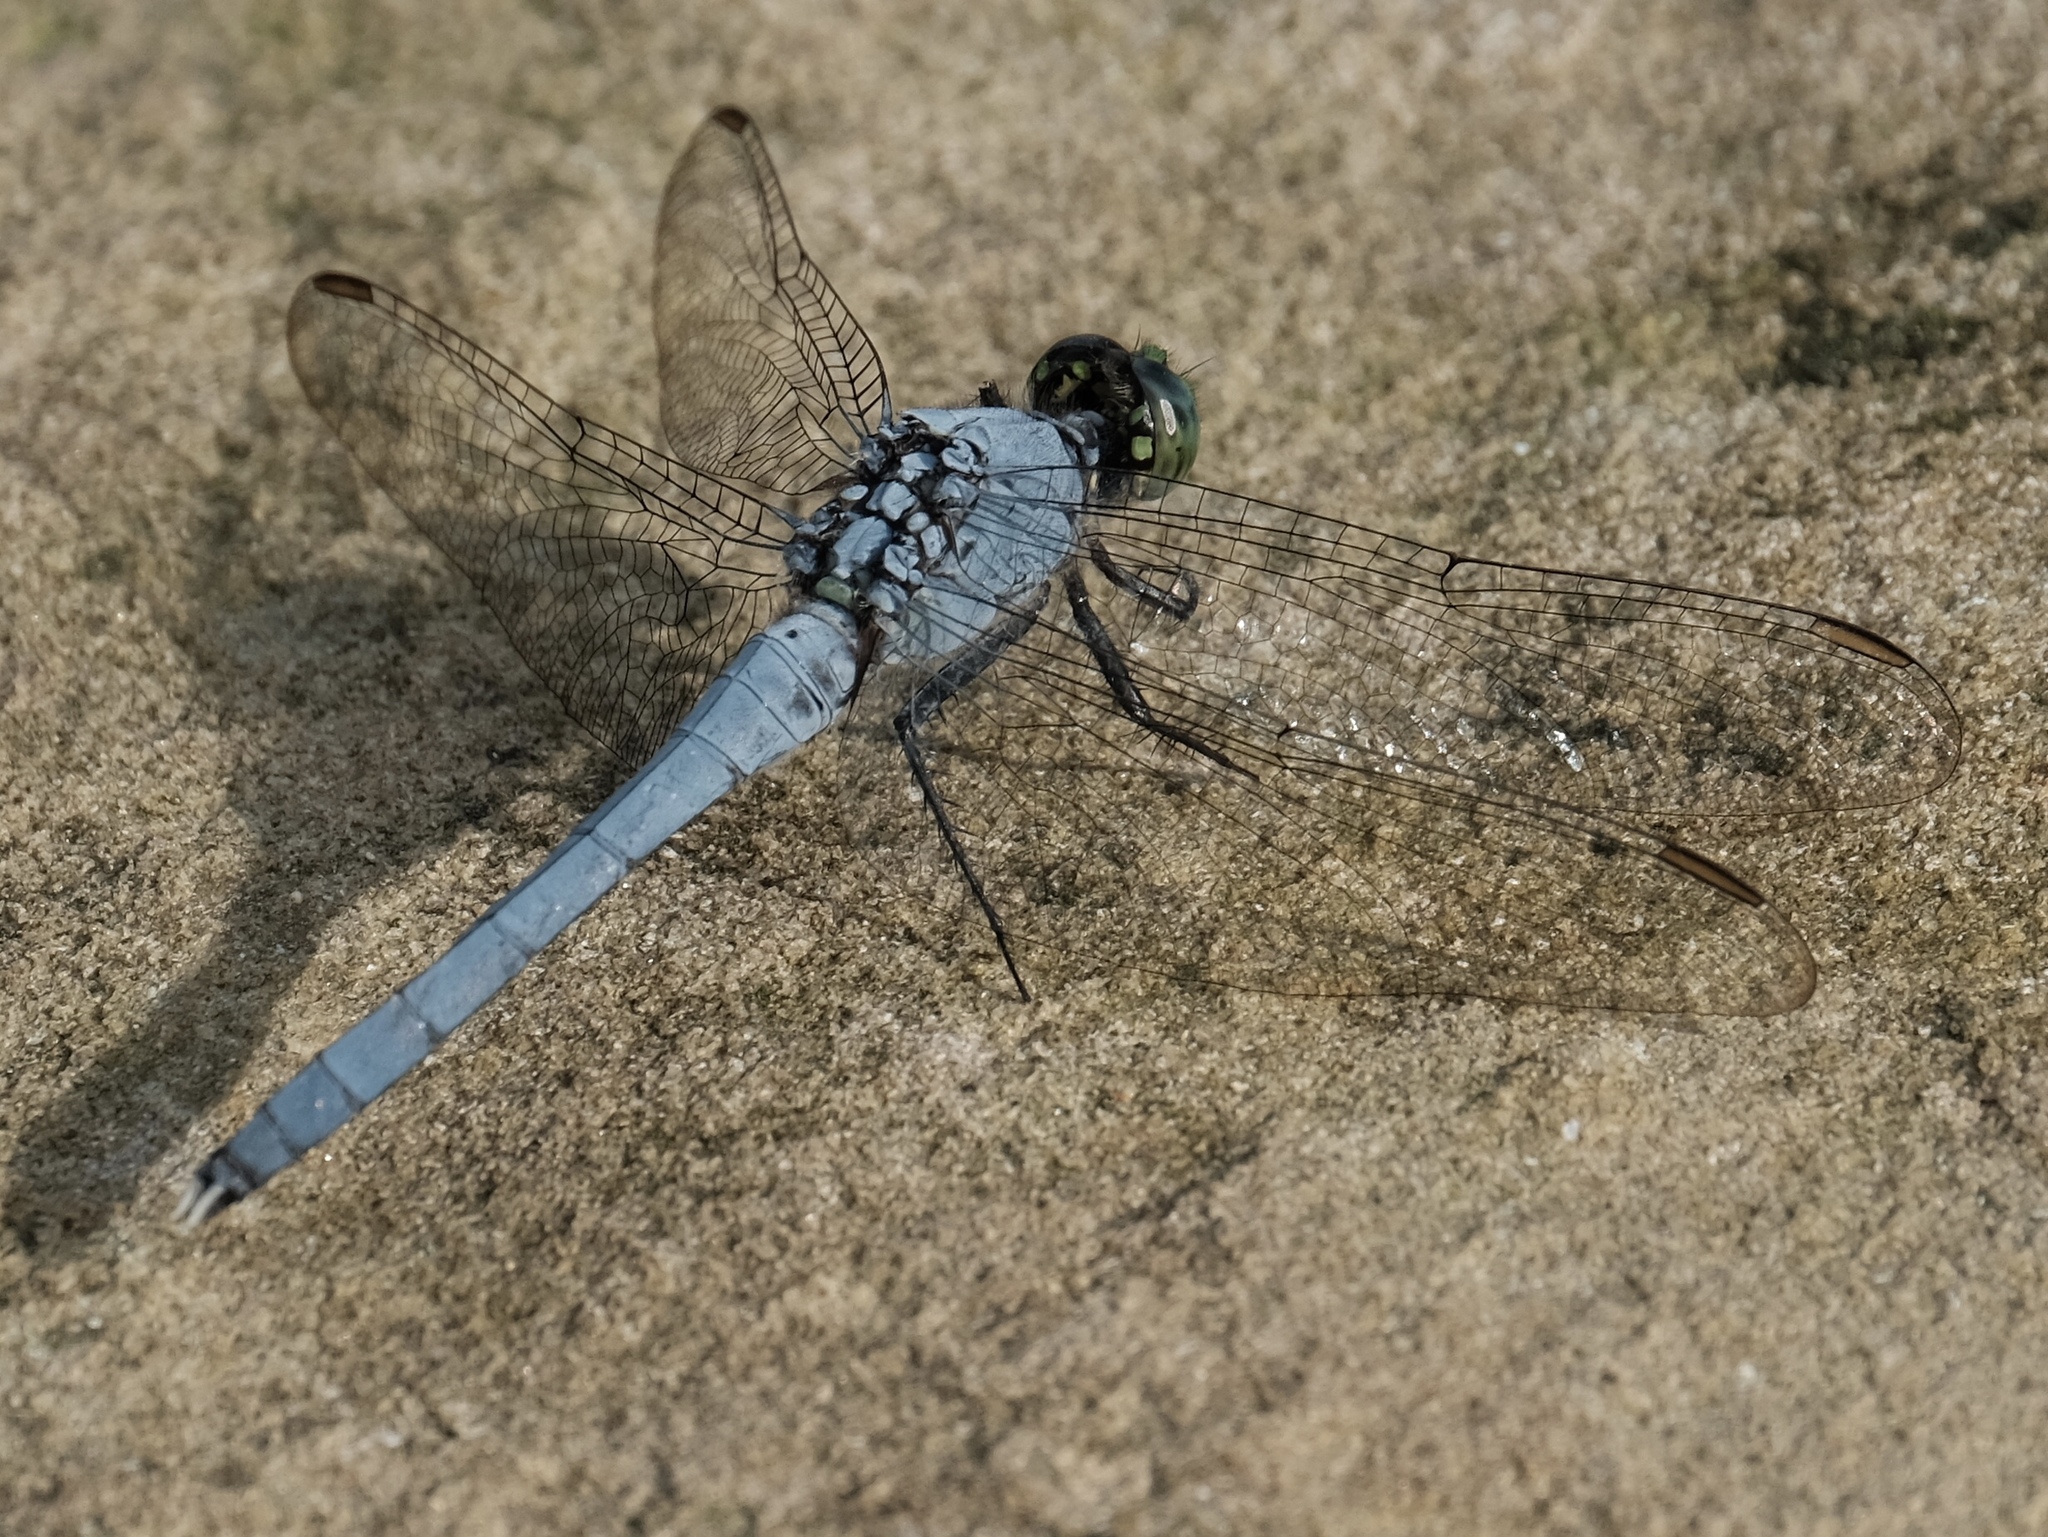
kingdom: Animalia
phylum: Arthropoda
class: Insecta
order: Odonata
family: Libellulidae
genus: Erythemis
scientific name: Erythemis simplicicollis
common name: Eastern pondhawk
